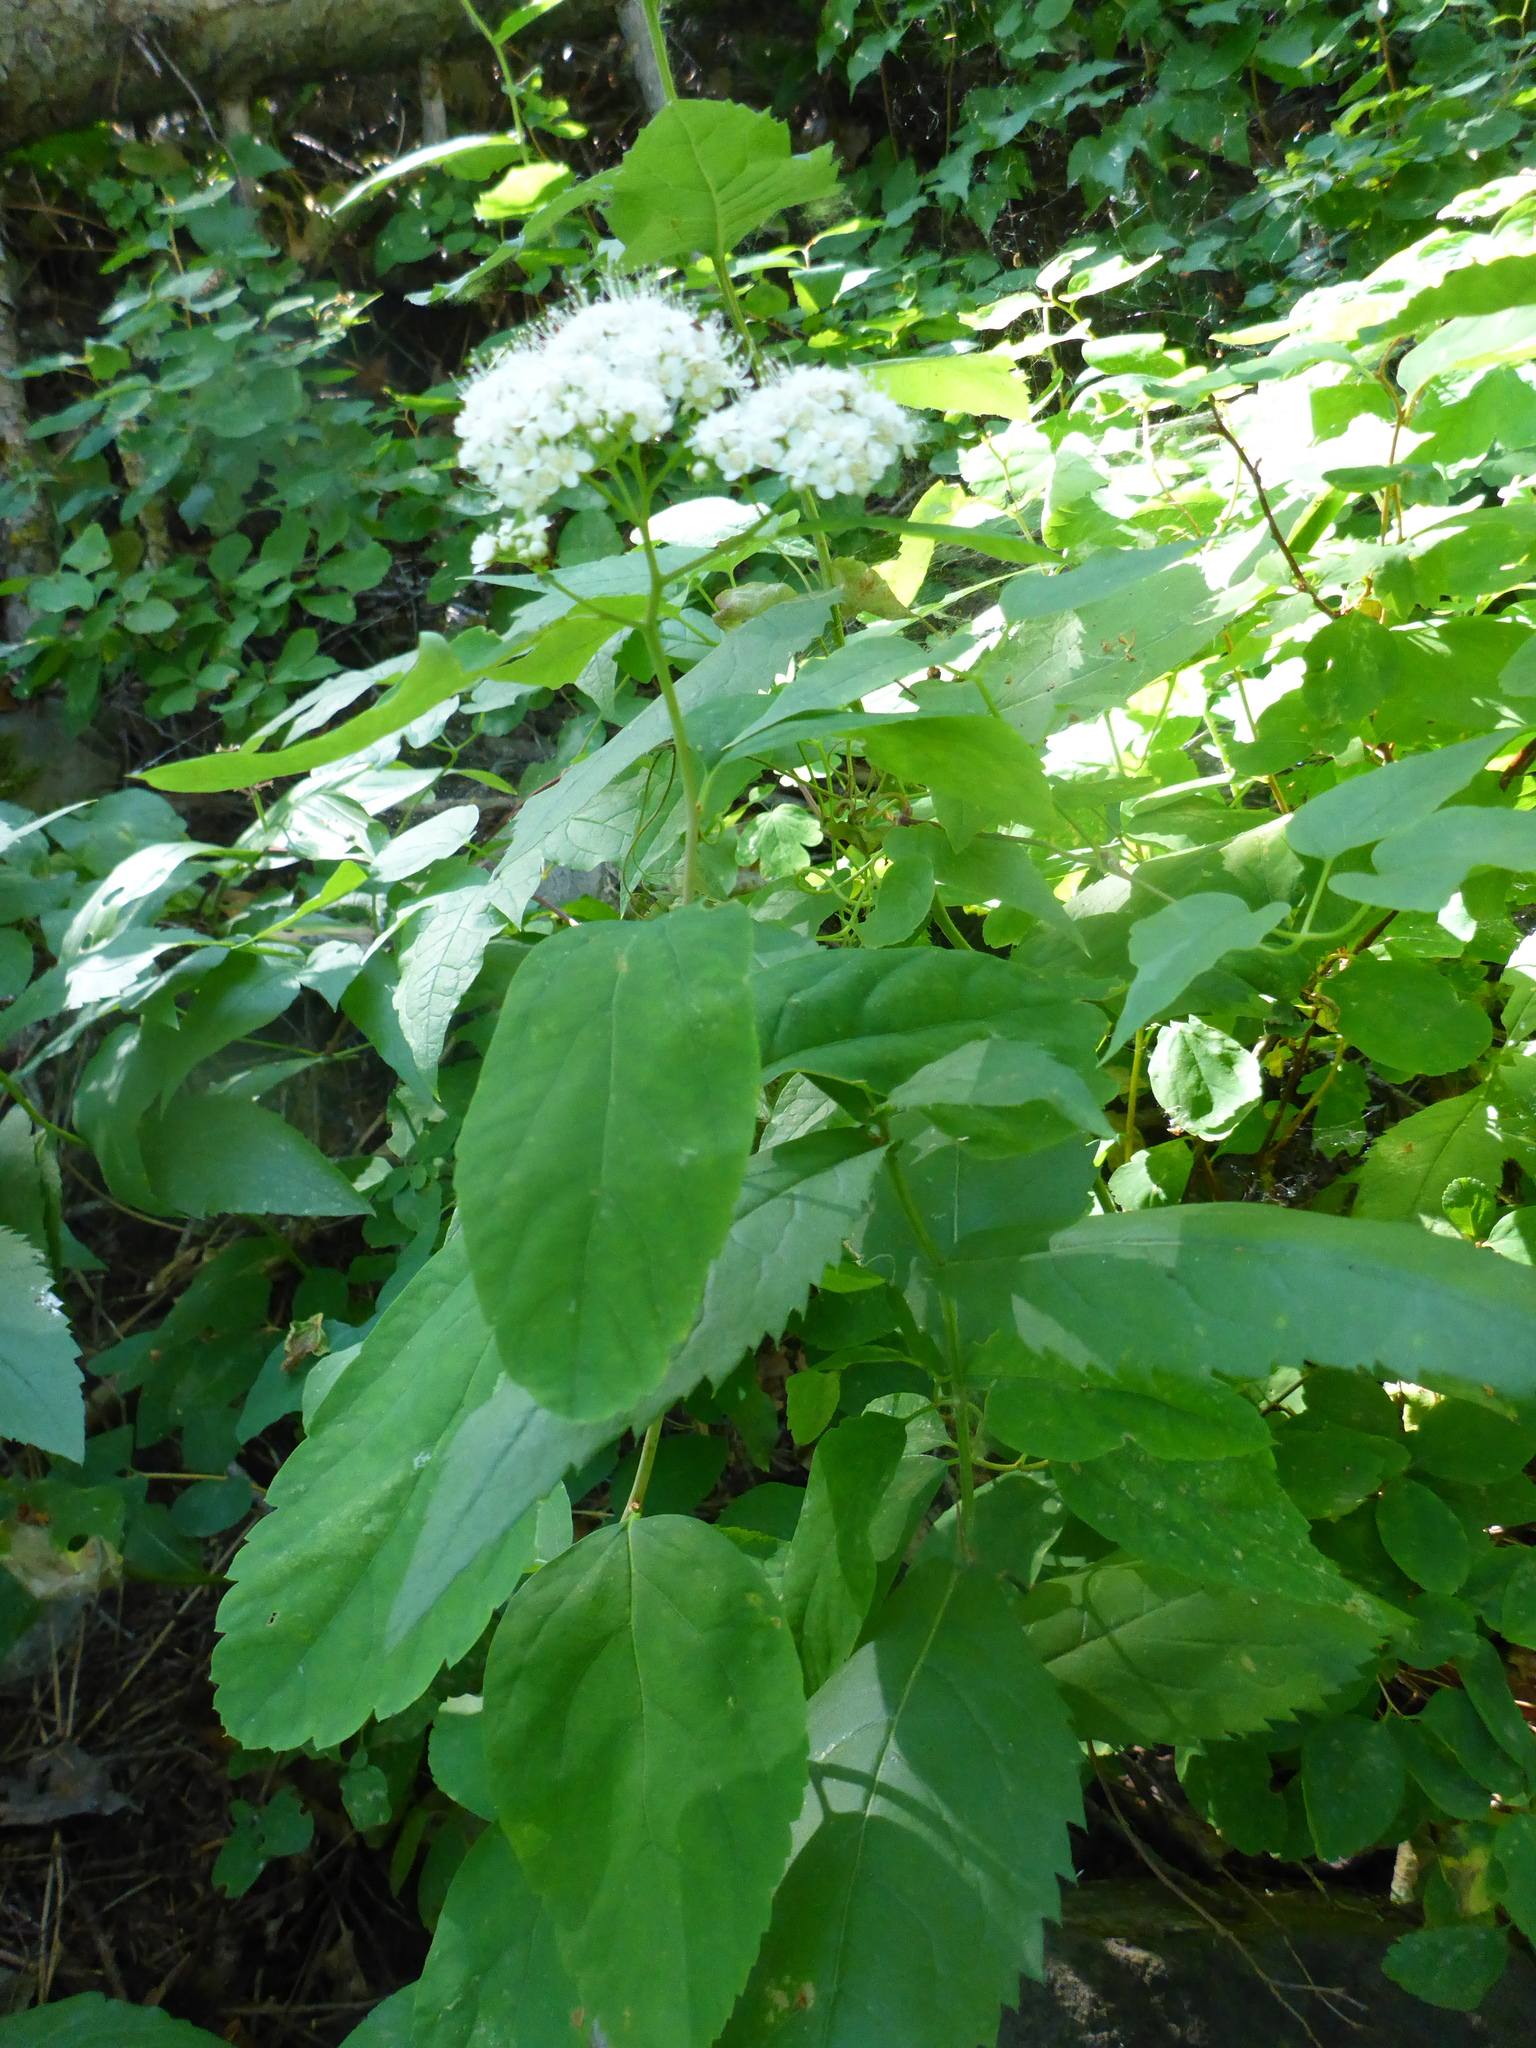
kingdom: Plantae
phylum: Tracheophyta
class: Magnoliopsida
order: Rosales
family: Rosaceae
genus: Spiraea
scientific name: Spiraea lucida
